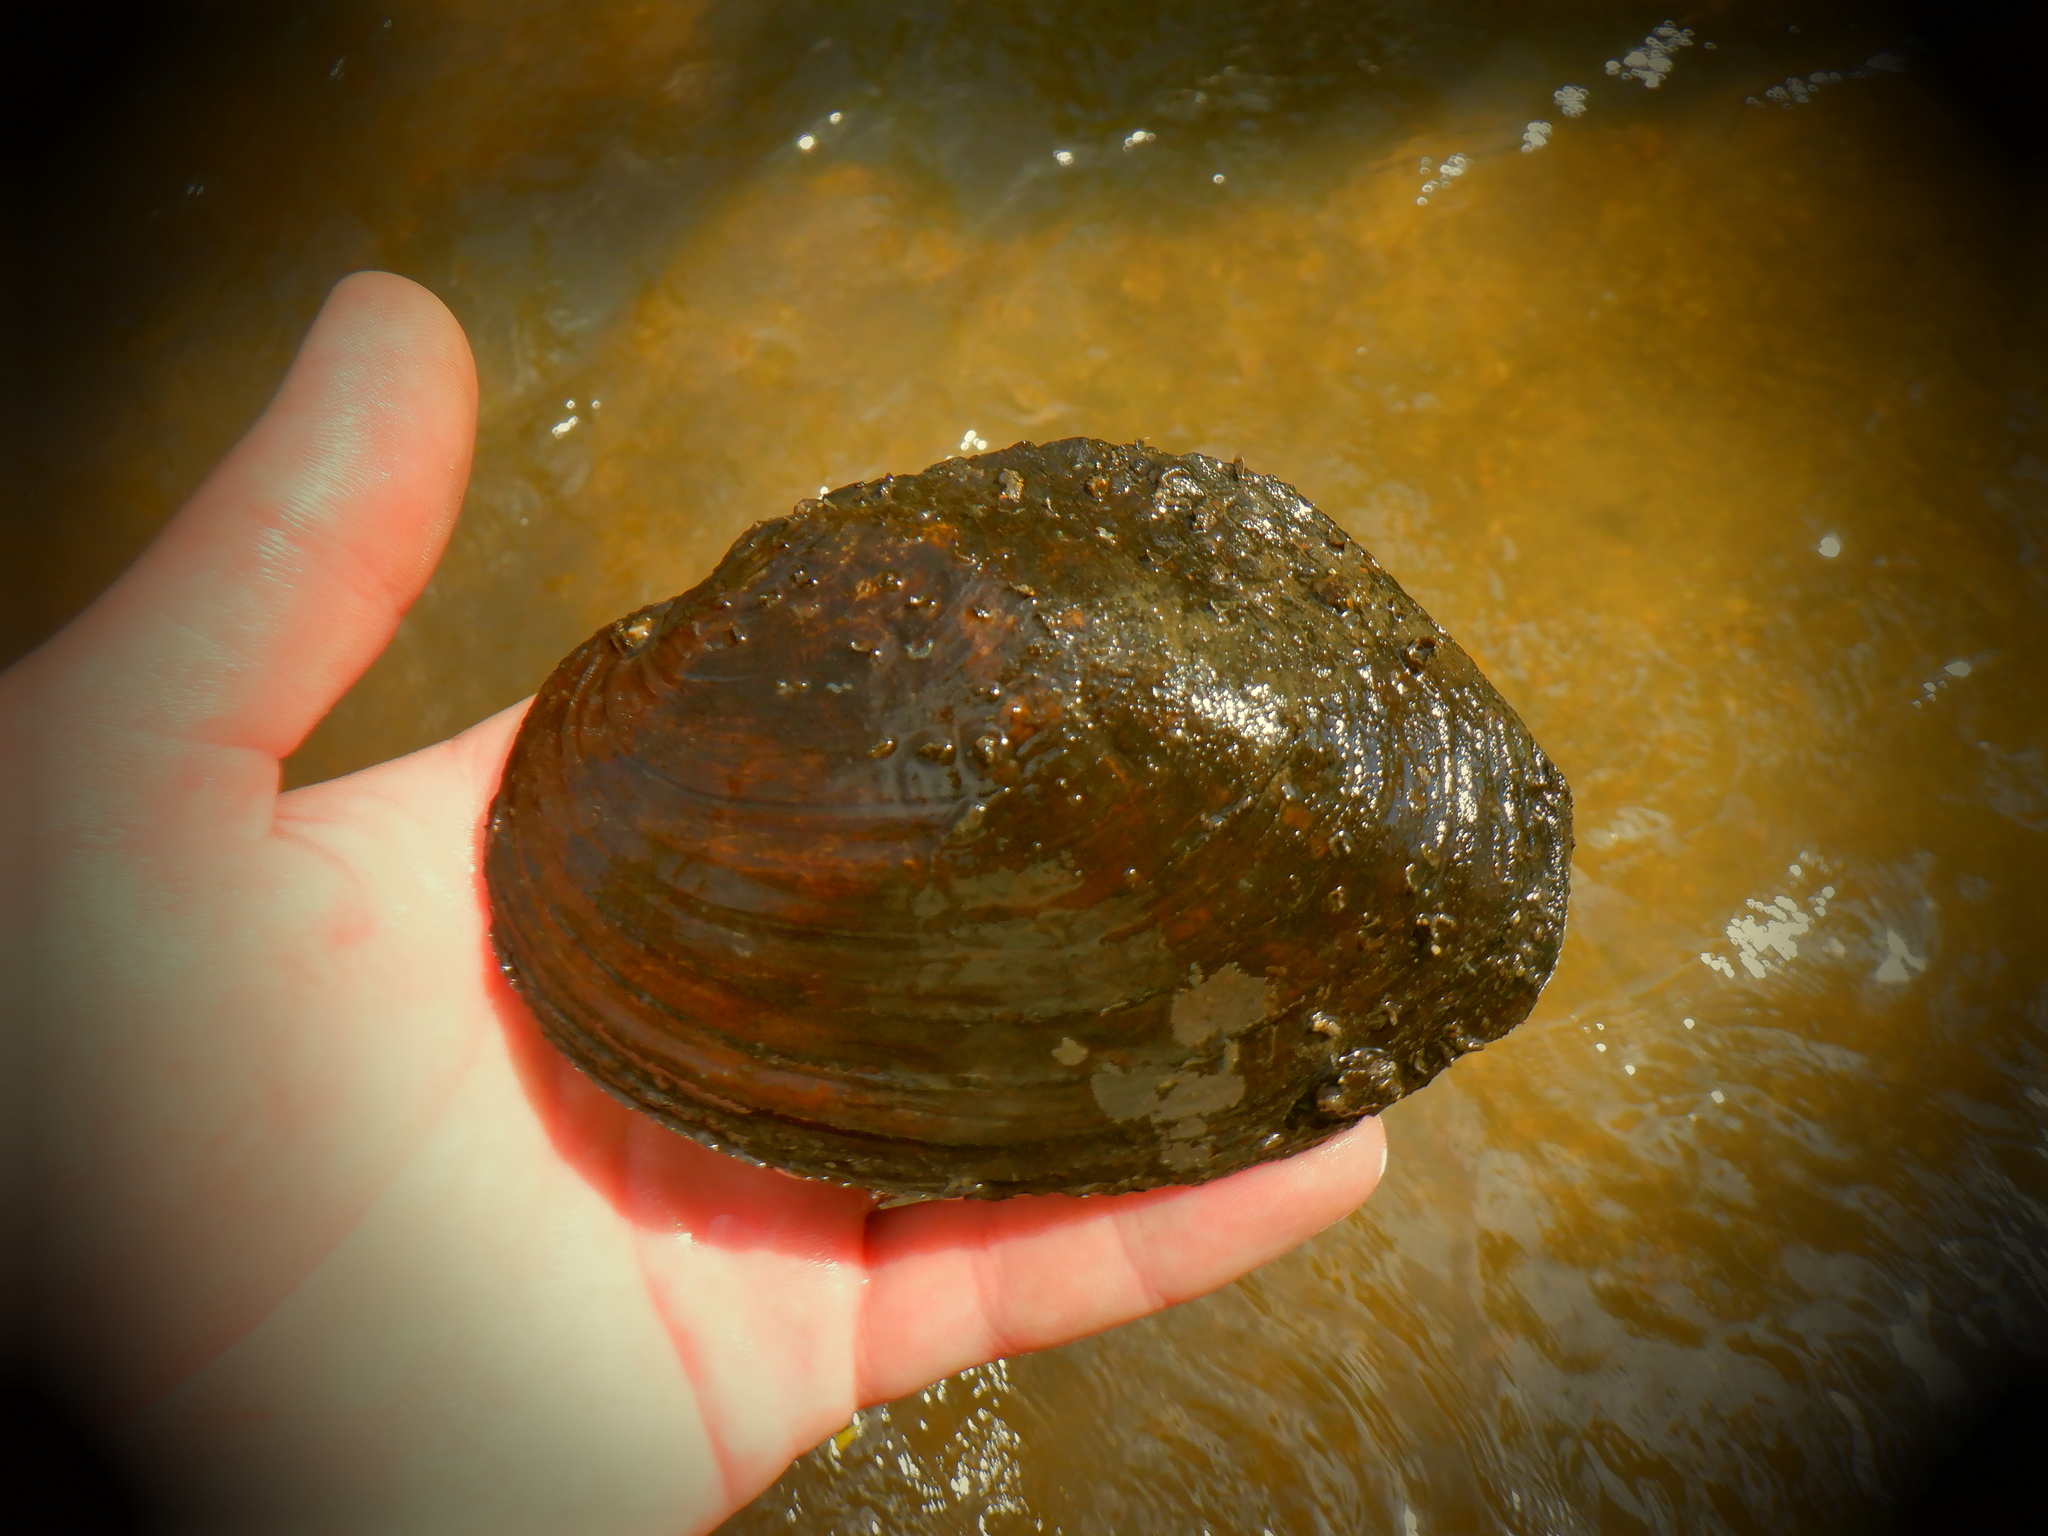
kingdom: Animalia
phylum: Mollusca
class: Bivalvia
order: Unionida
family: Unionidae
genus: Lasmigona
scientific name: Lasmigona complanata
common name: White heelsplitter
